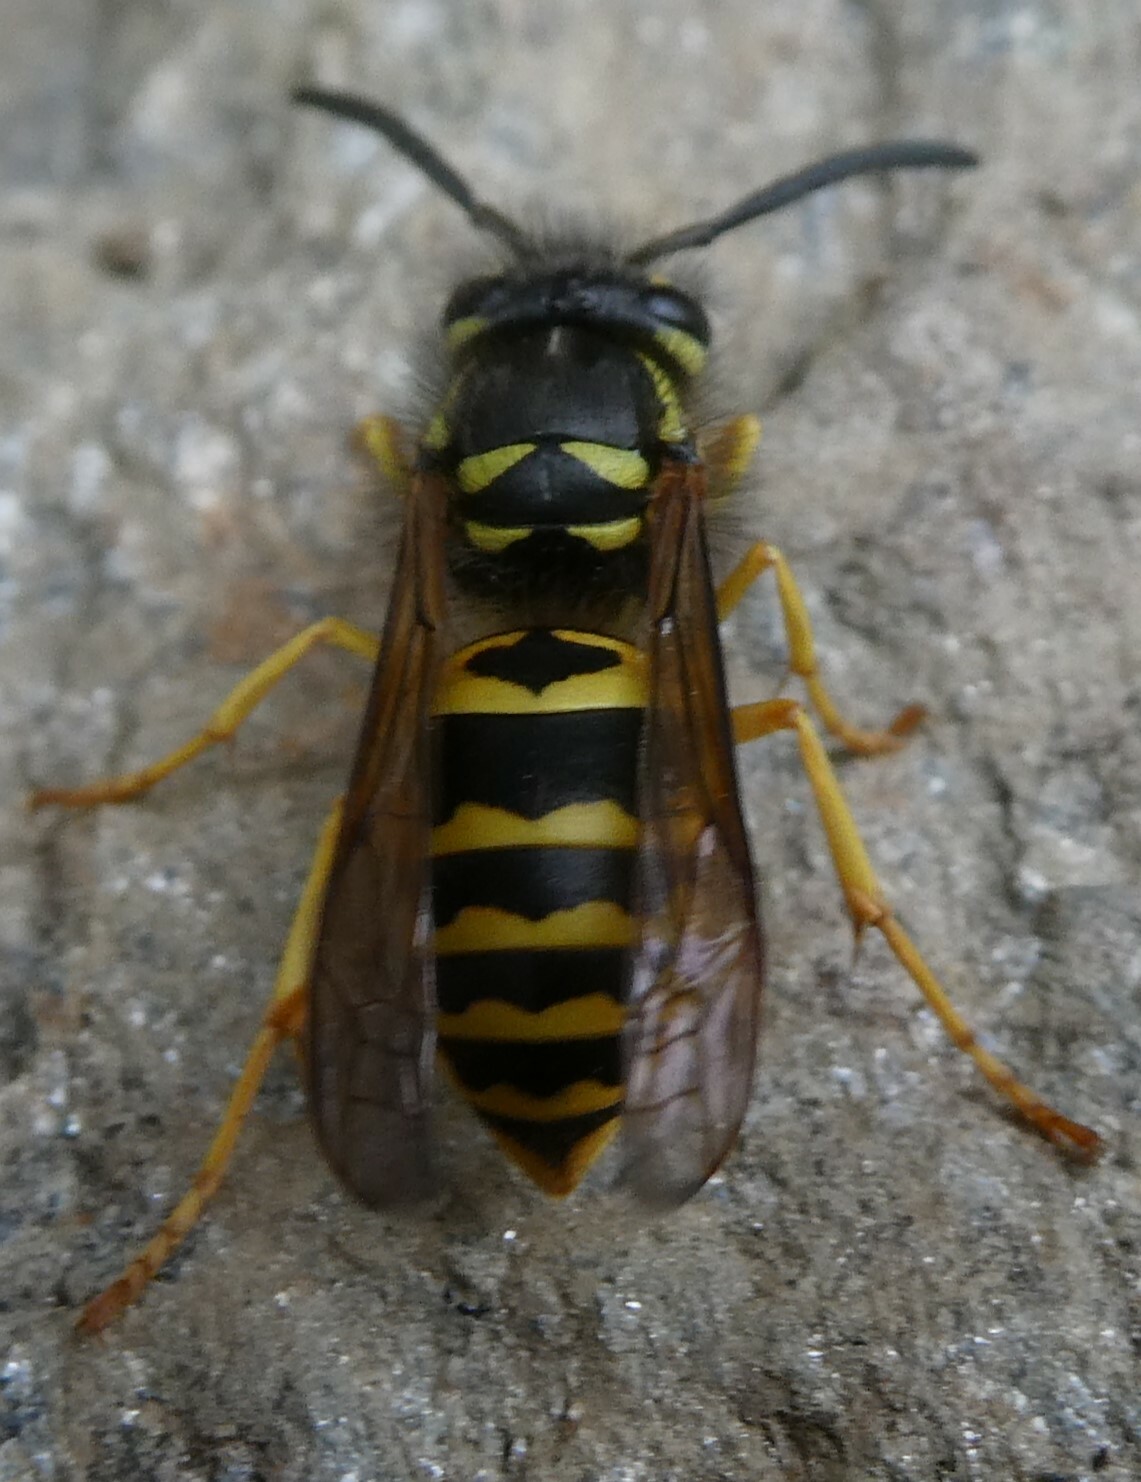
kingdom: Animalia
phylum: Arthropoda
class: Insecta
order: Hymenoptera
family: Vespidae
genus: Vespula
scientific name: Vespula maculifrons
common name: Eastern yellowjacket
